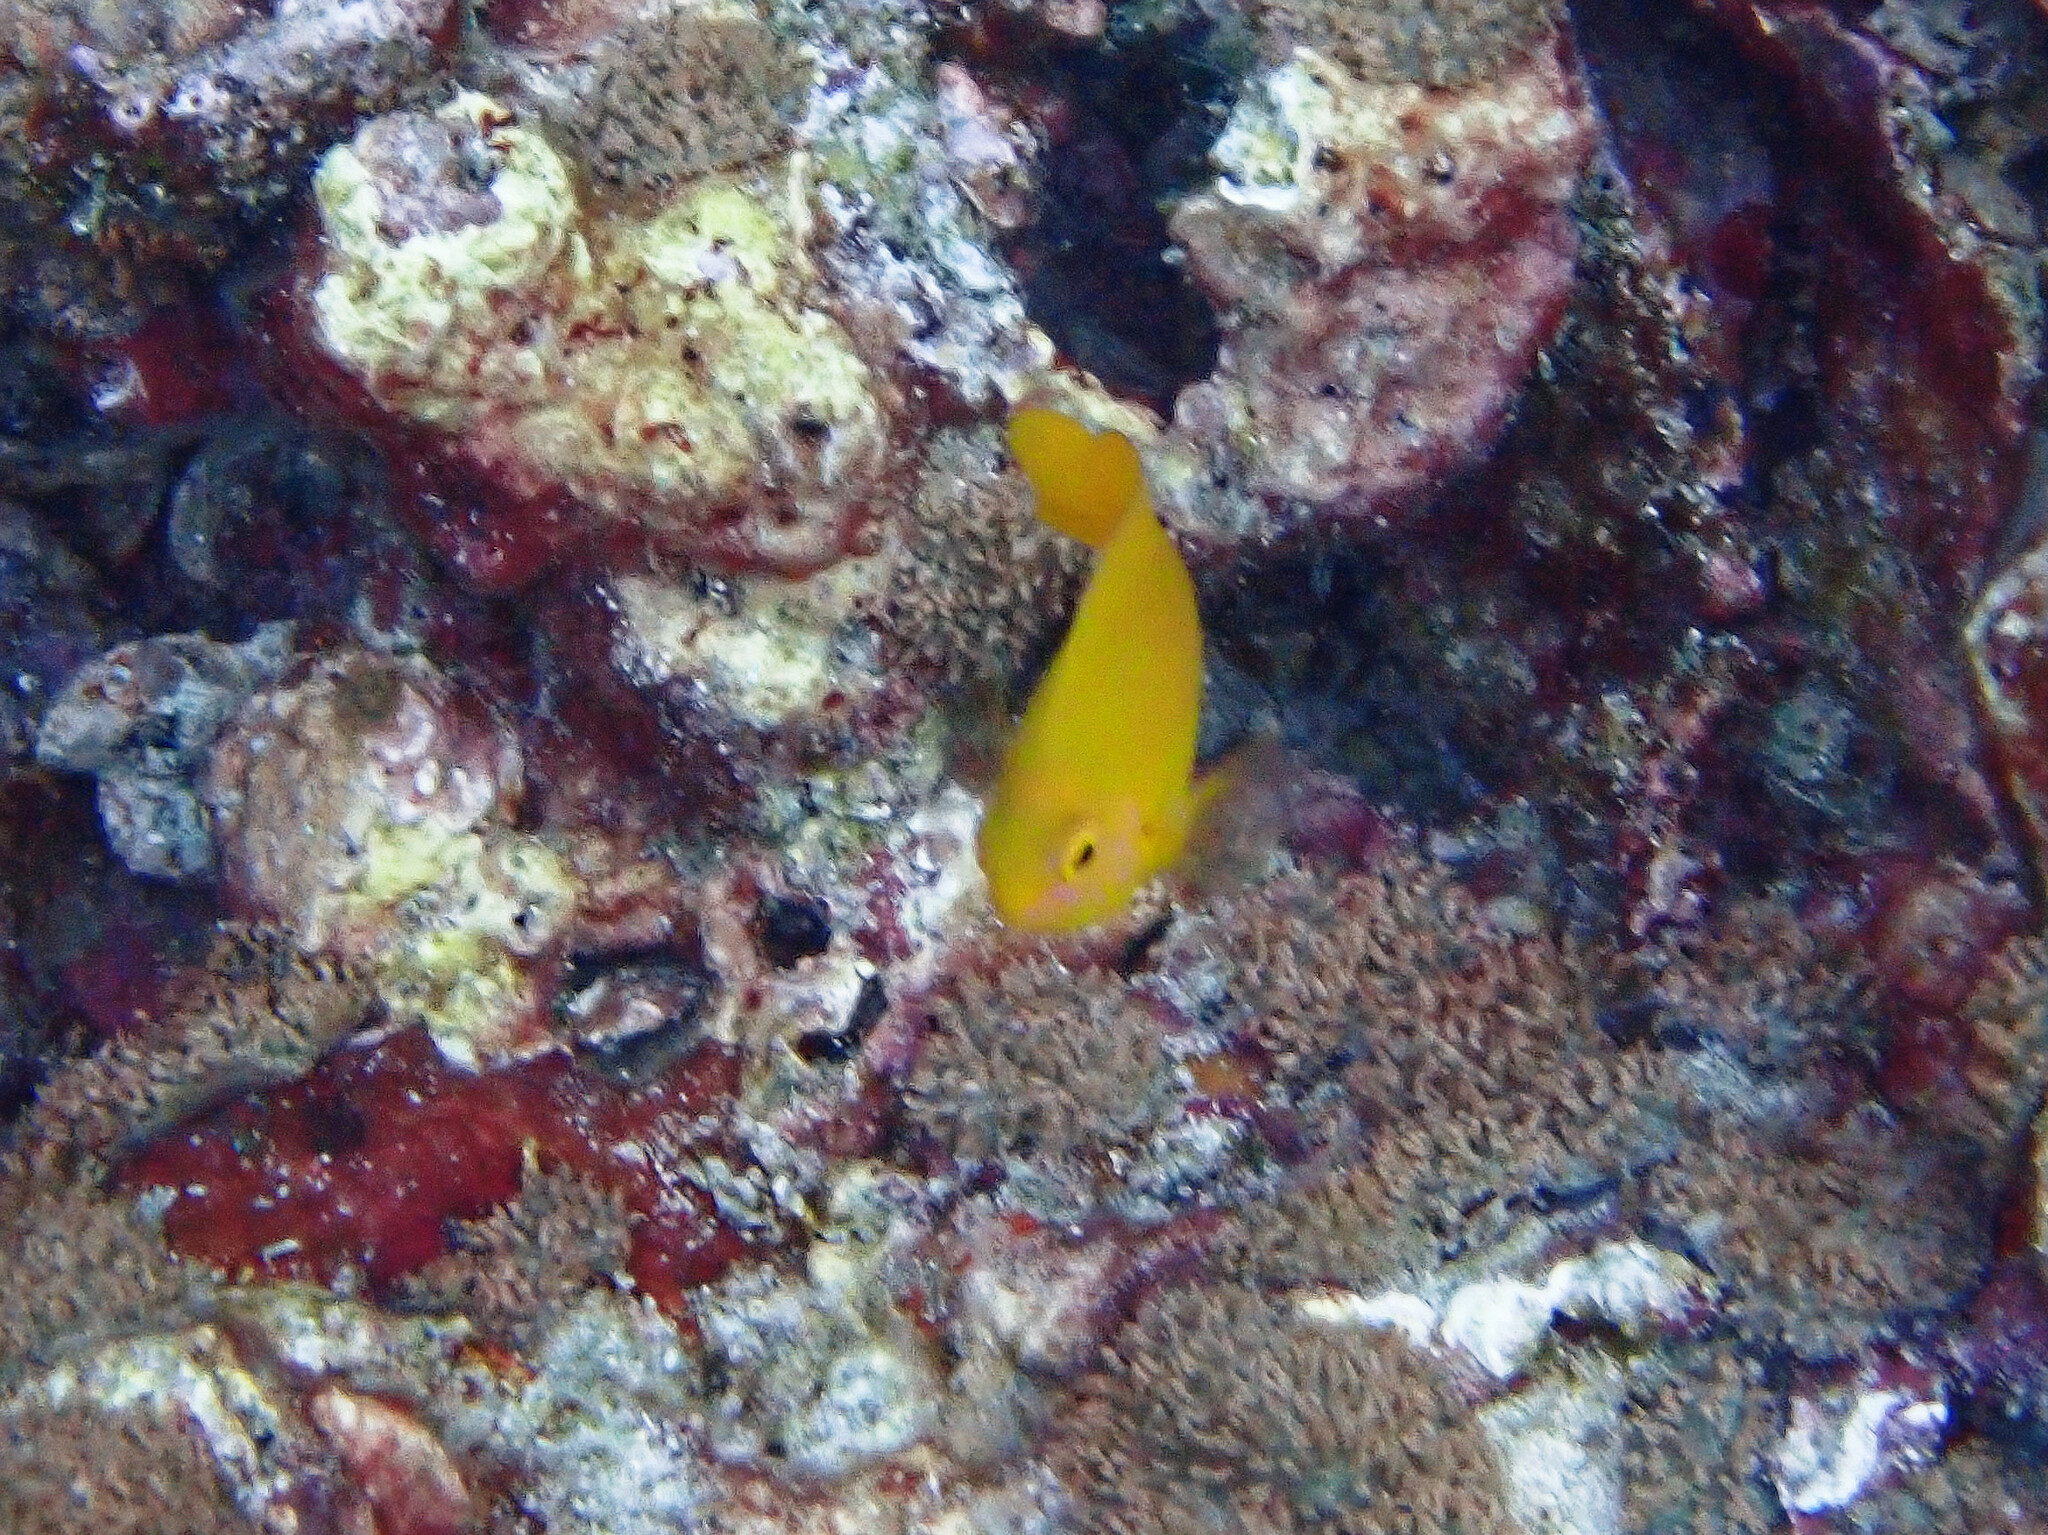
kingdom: Animalia
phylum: Chordata
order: Perciformes
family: Pomacentridae
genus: Pomacentrus
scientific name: Pomacentrus moluccensis
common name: Lemon damsel
